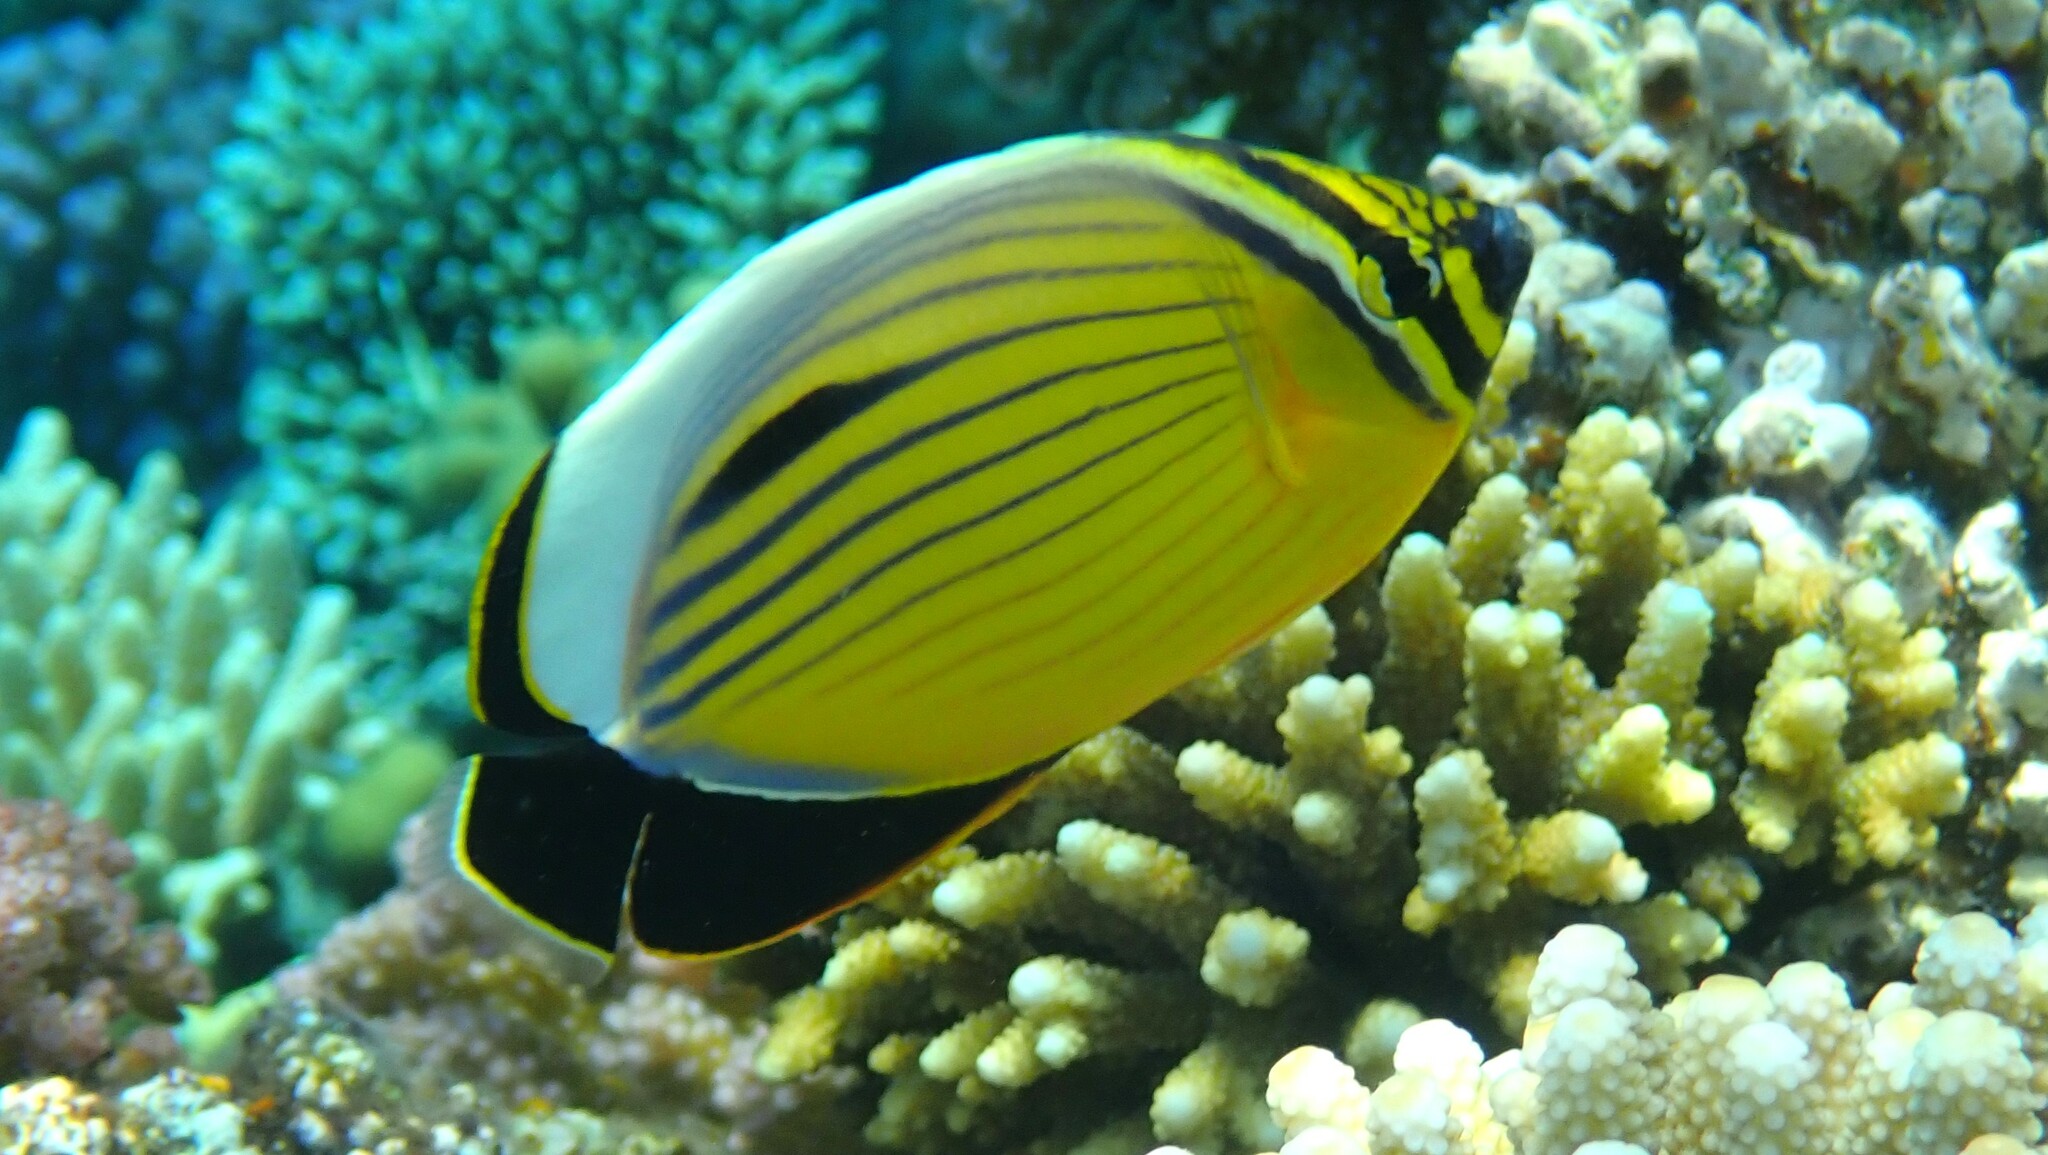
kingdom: Animalia
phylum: Chordata
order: Perciformes
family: Chaetodontidae
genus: Chaetodon
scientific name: Chaetodon austriacus
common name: Exquisite butterflyfish
